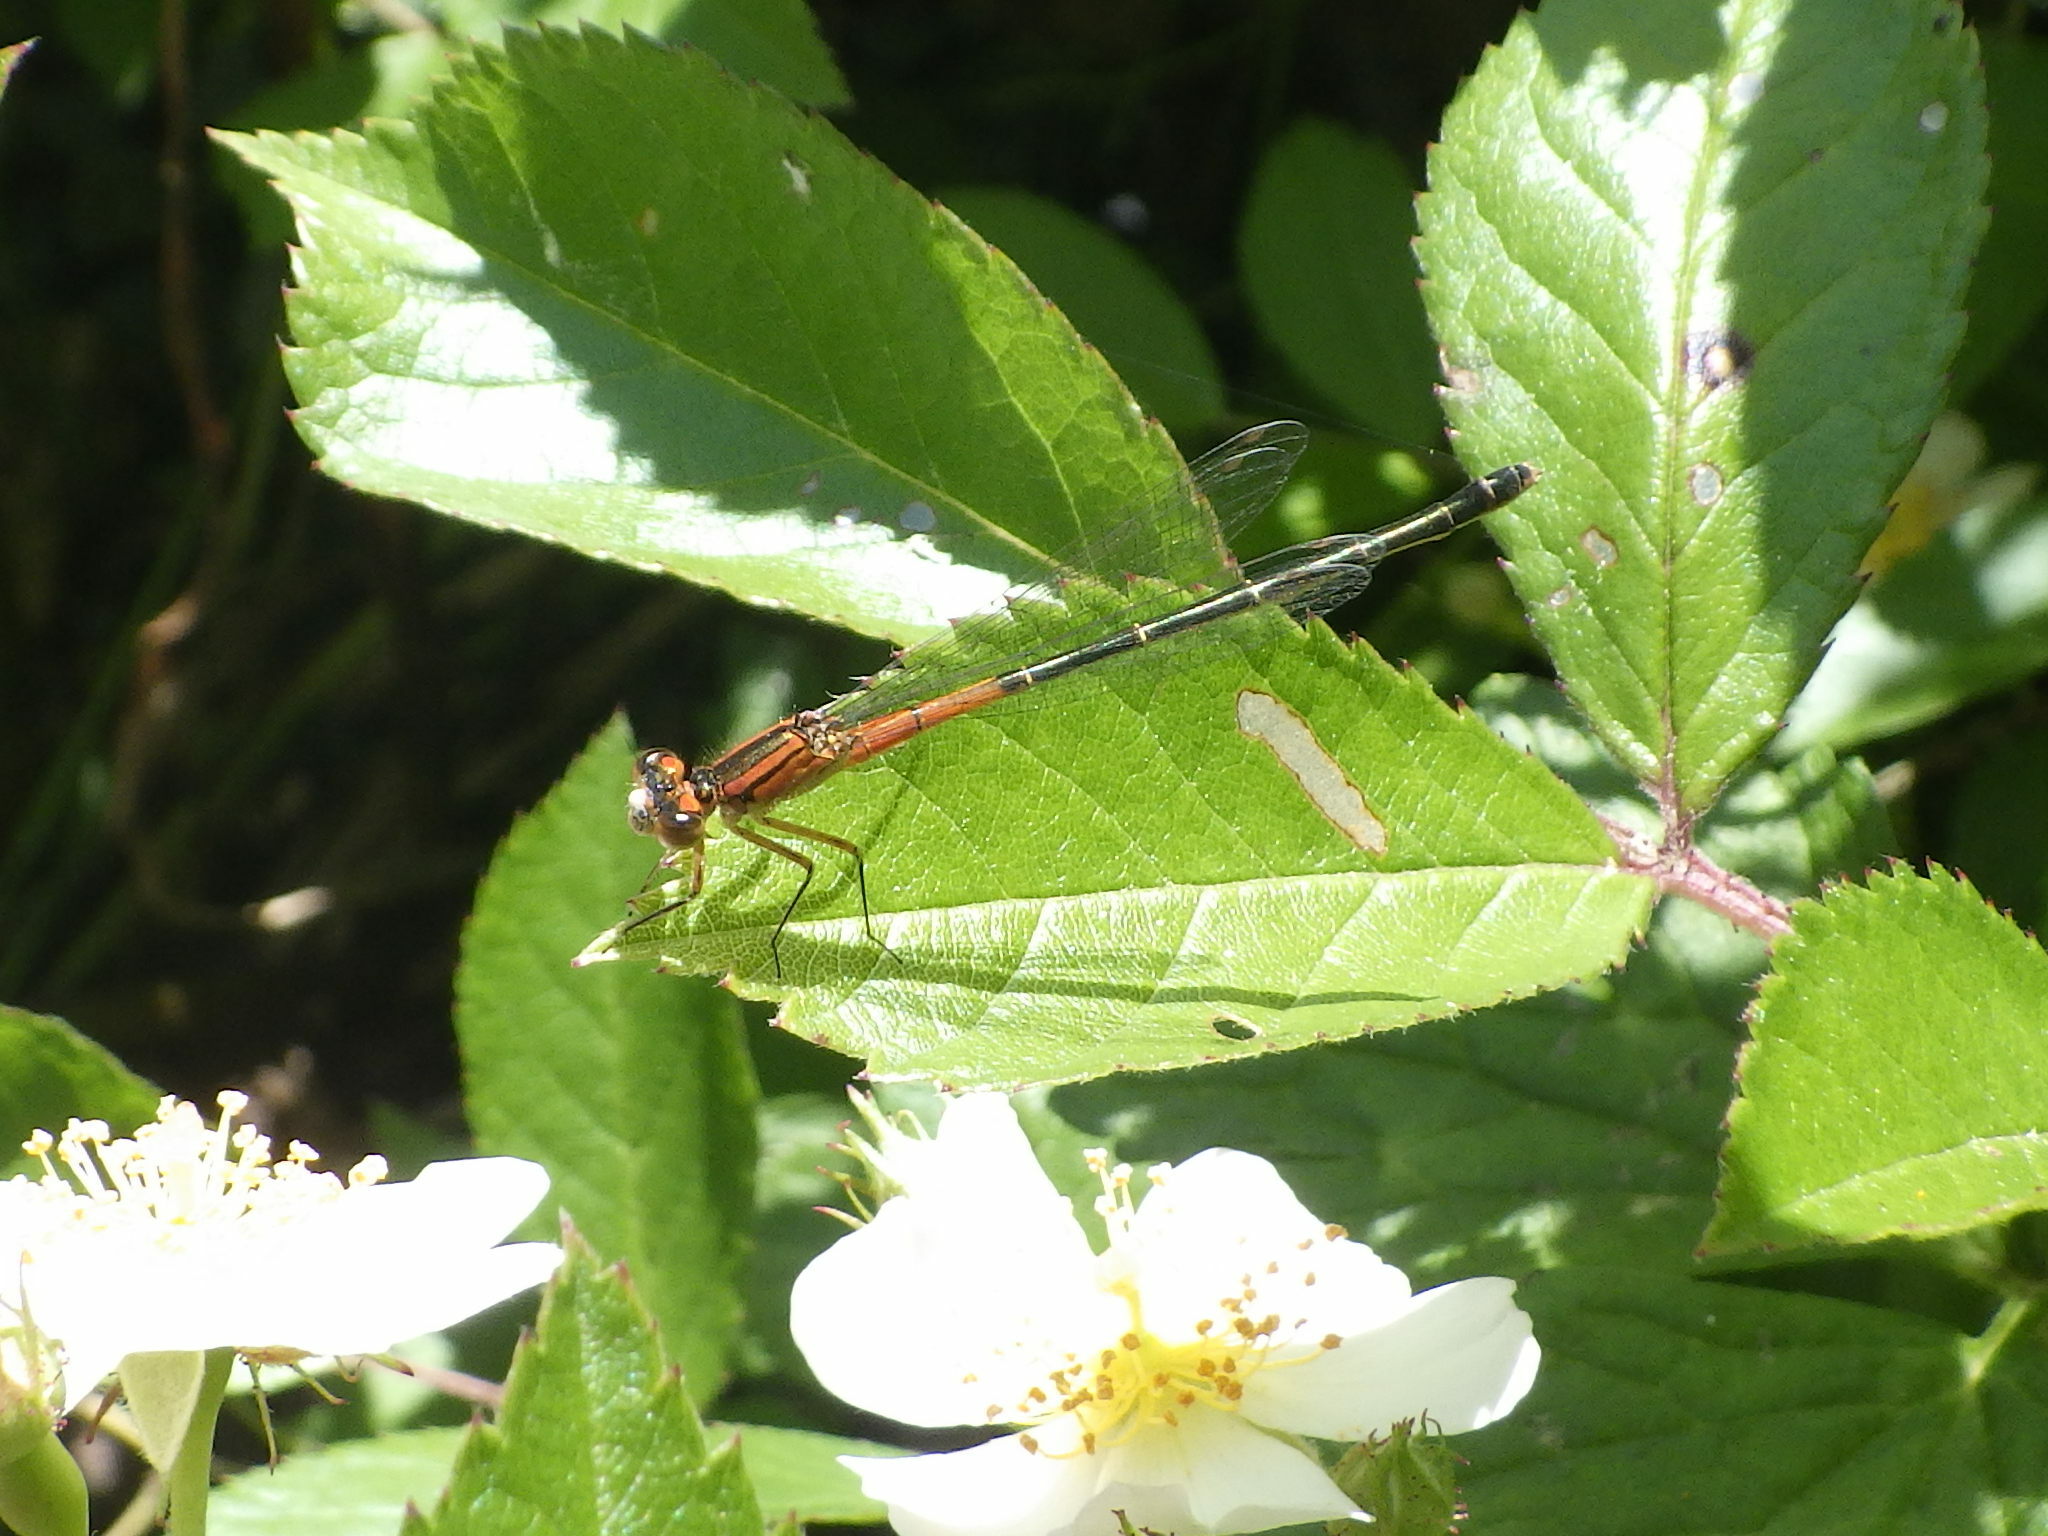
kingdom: Animalia
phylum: Arthropoda
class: Insecta
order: Odonata
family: Coenagrionidae
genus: Ischnura
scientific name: Ischnura verticalis
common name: Eastern forktail
